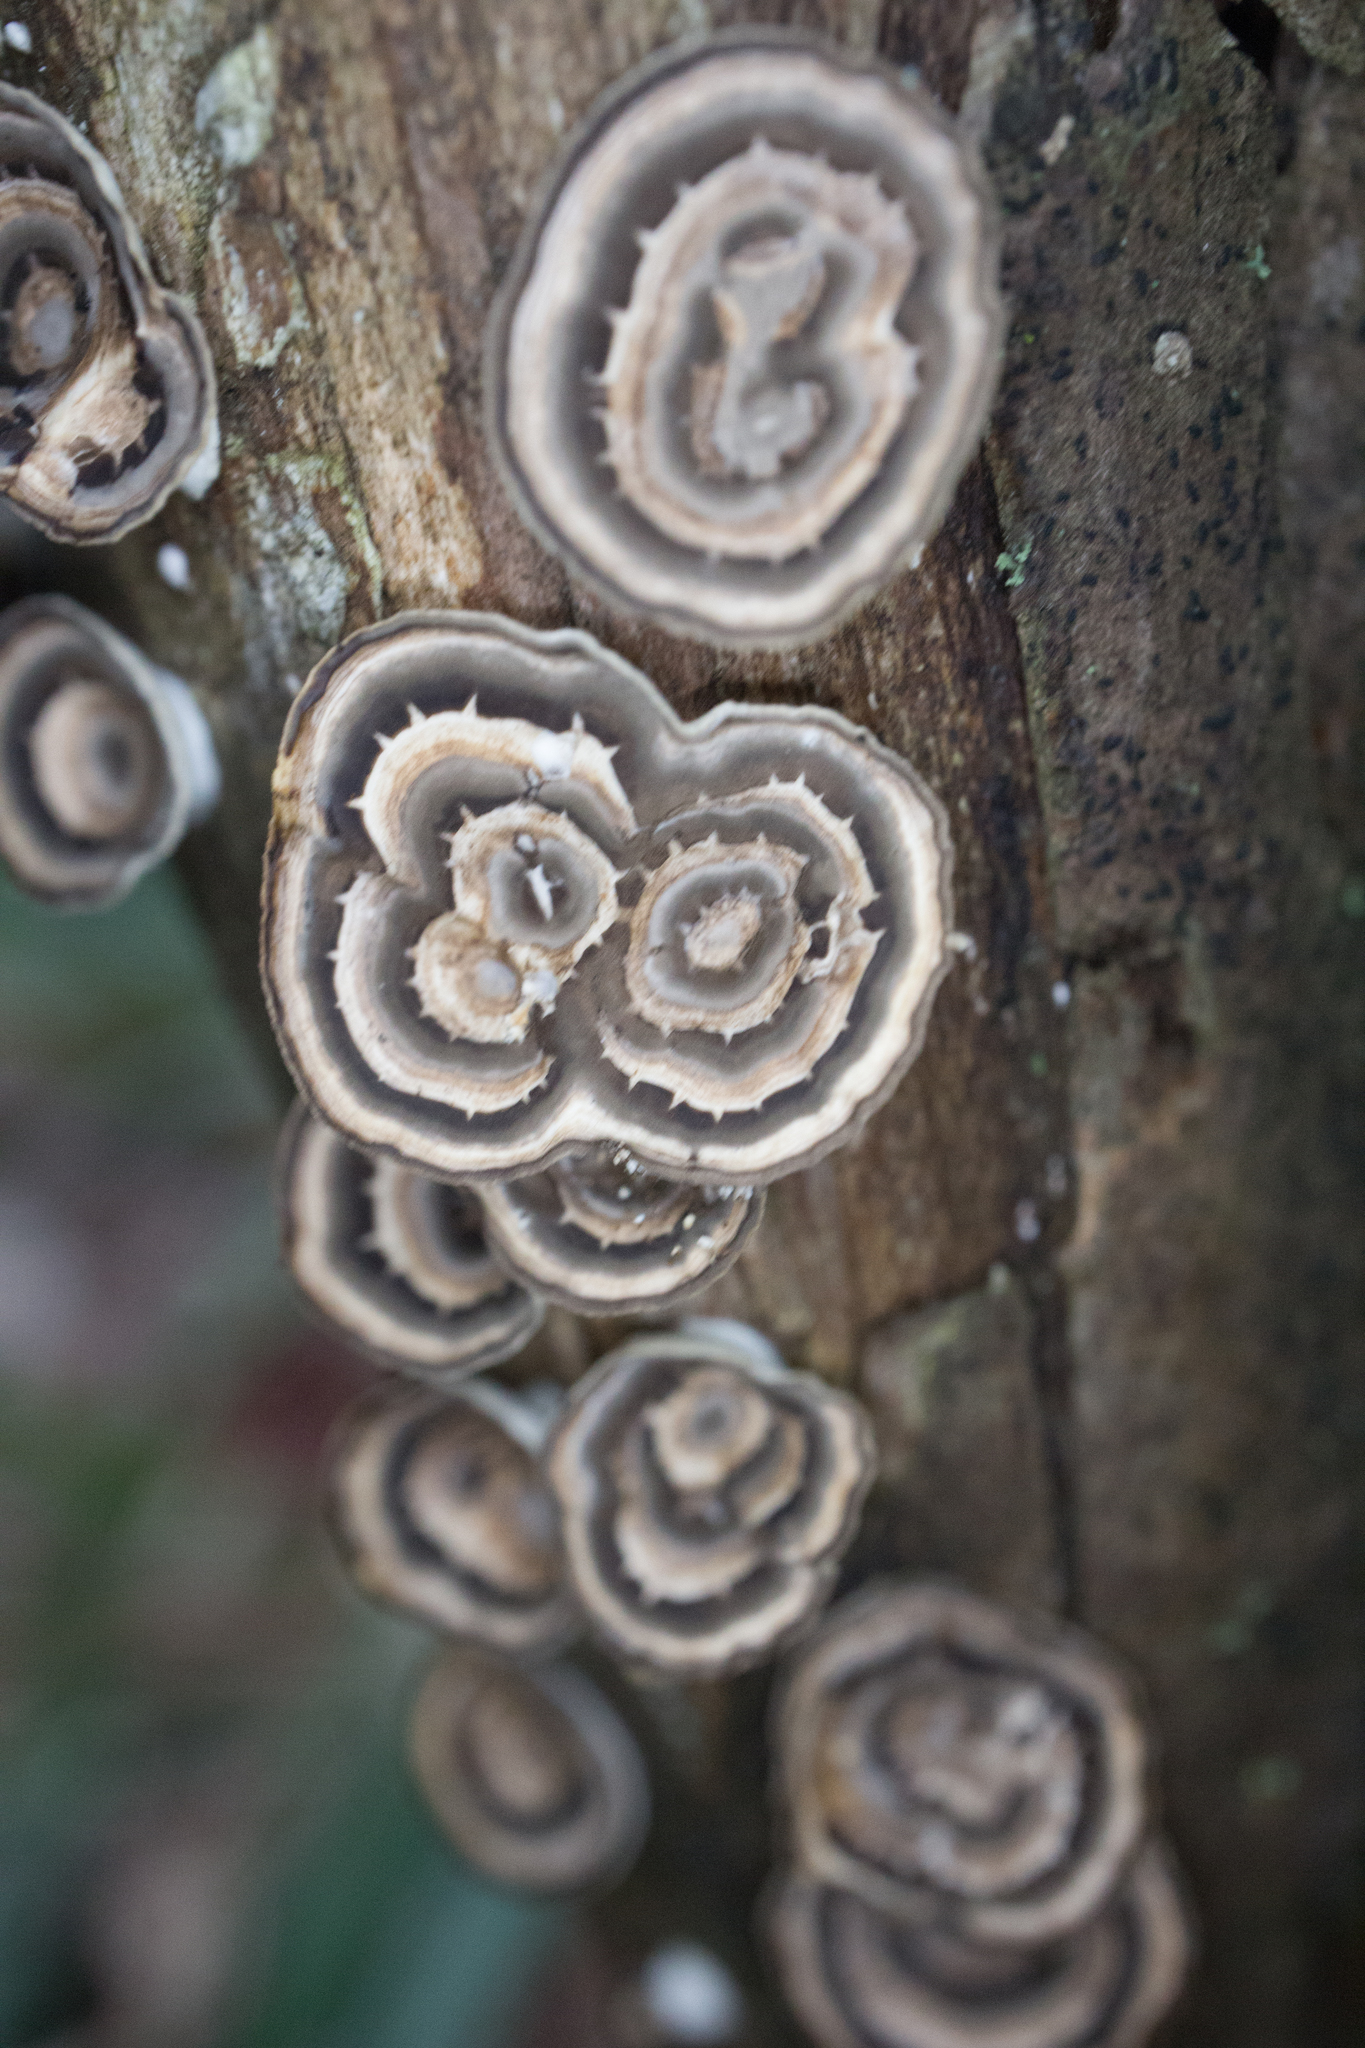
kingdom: Fungi
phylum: Basidiomycota
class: Agaricomycetes
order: Polyporales
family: Polyporaceae
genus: Poronidulus
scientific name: Poronidulus conchifer
